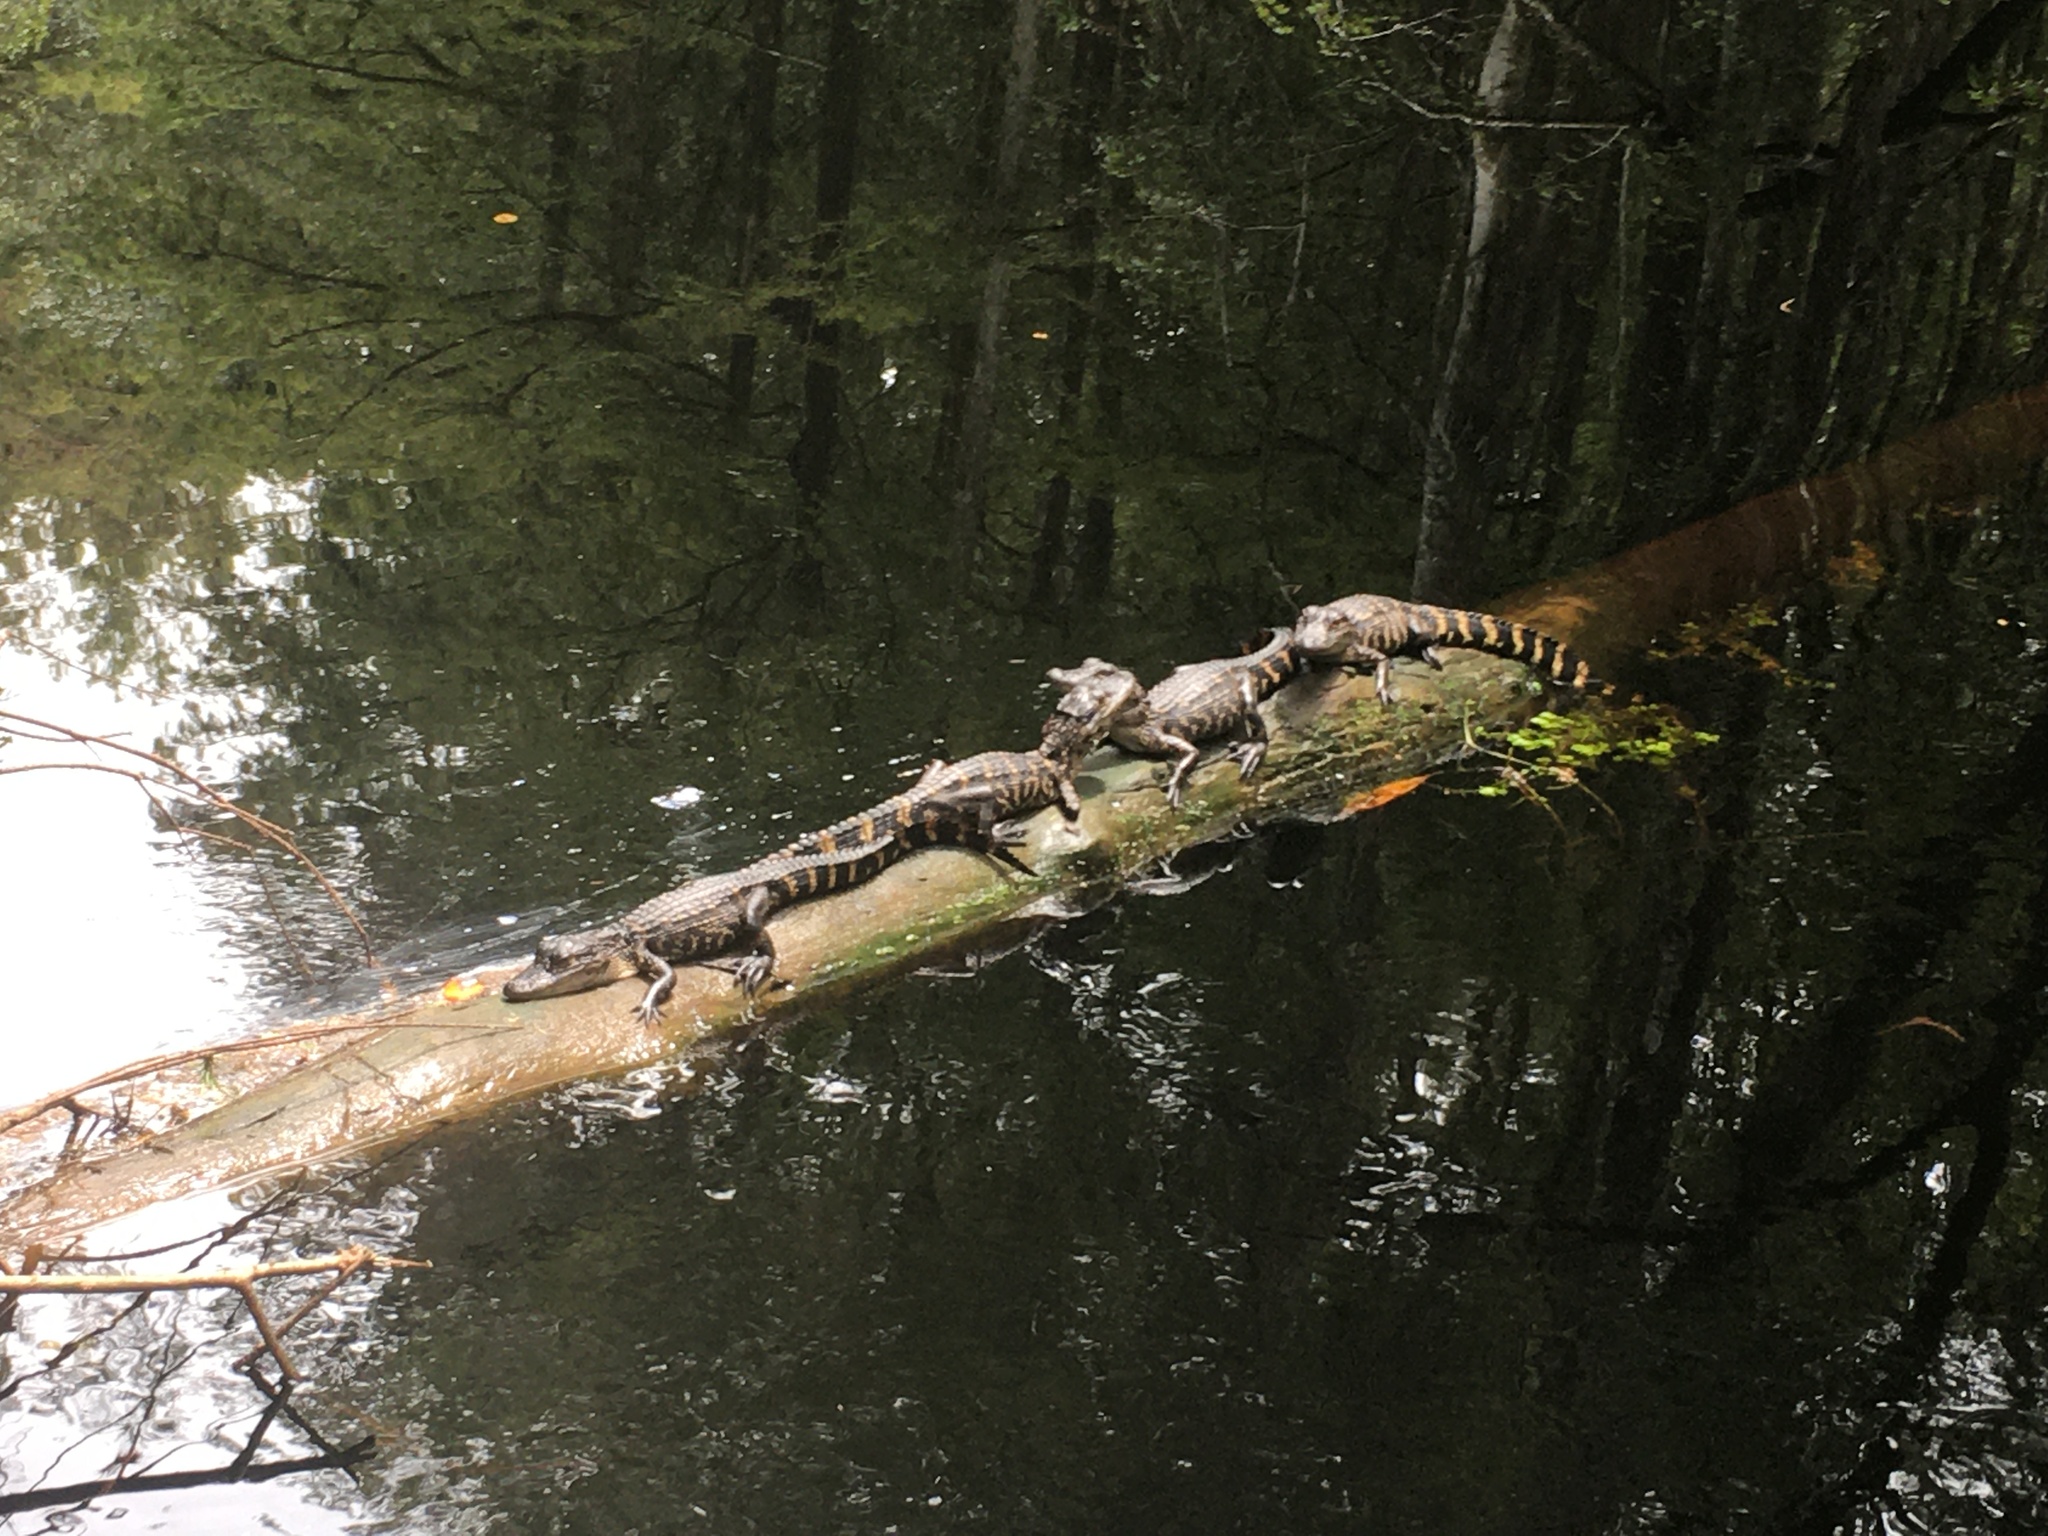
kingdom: Animalia
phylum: Chordata
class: Crocodylia
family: Alligatoridae
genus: Alligator
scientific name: Alligator mississippiensis
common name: American alligator
